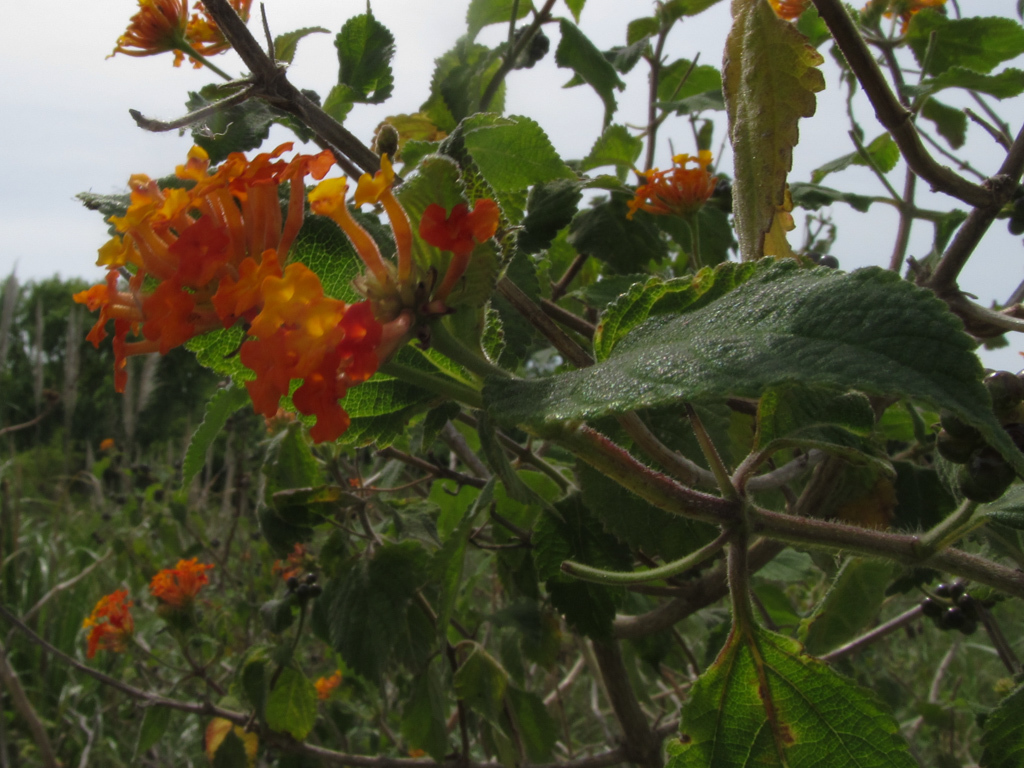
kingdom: Plantae
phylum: Tracheophyta
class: Magnoliopsida
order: Lamiales
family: Verbenaceae
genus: Lantana
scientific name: Lantana camara
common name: Lantana
